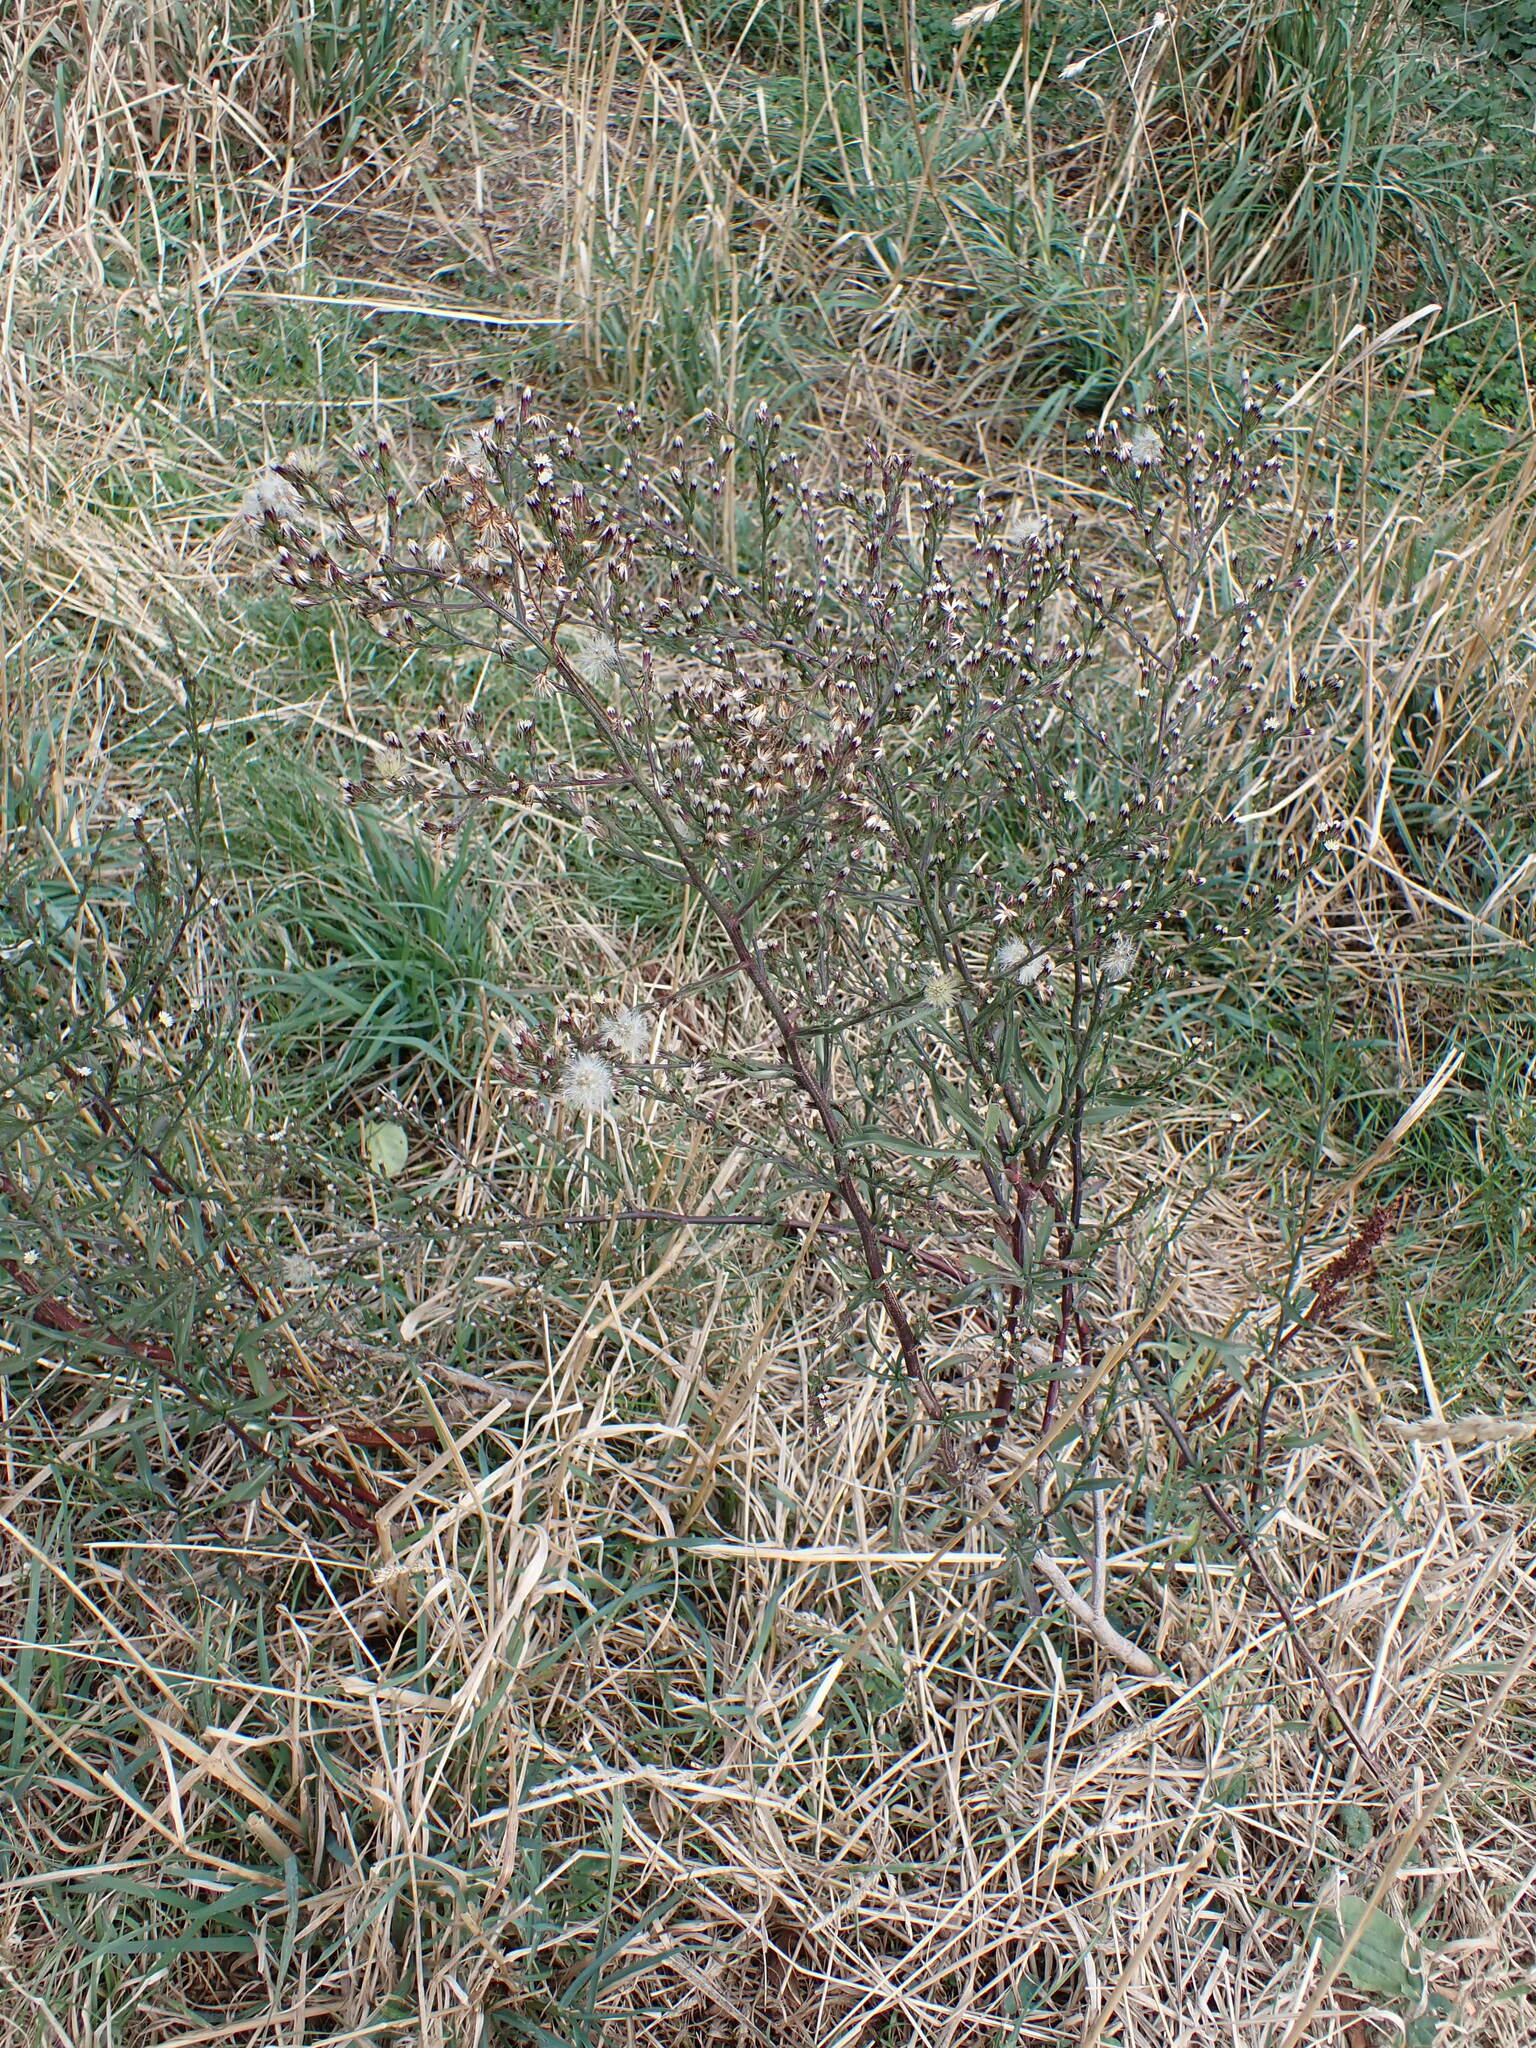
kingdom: Plantae
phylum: Tracheophyta
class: Magnoliopsida
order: Asterales
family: Asteraceae
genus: Symphyotrichum
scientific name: Symphyotrichum subulatum
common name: Annual saltmarsh aster
